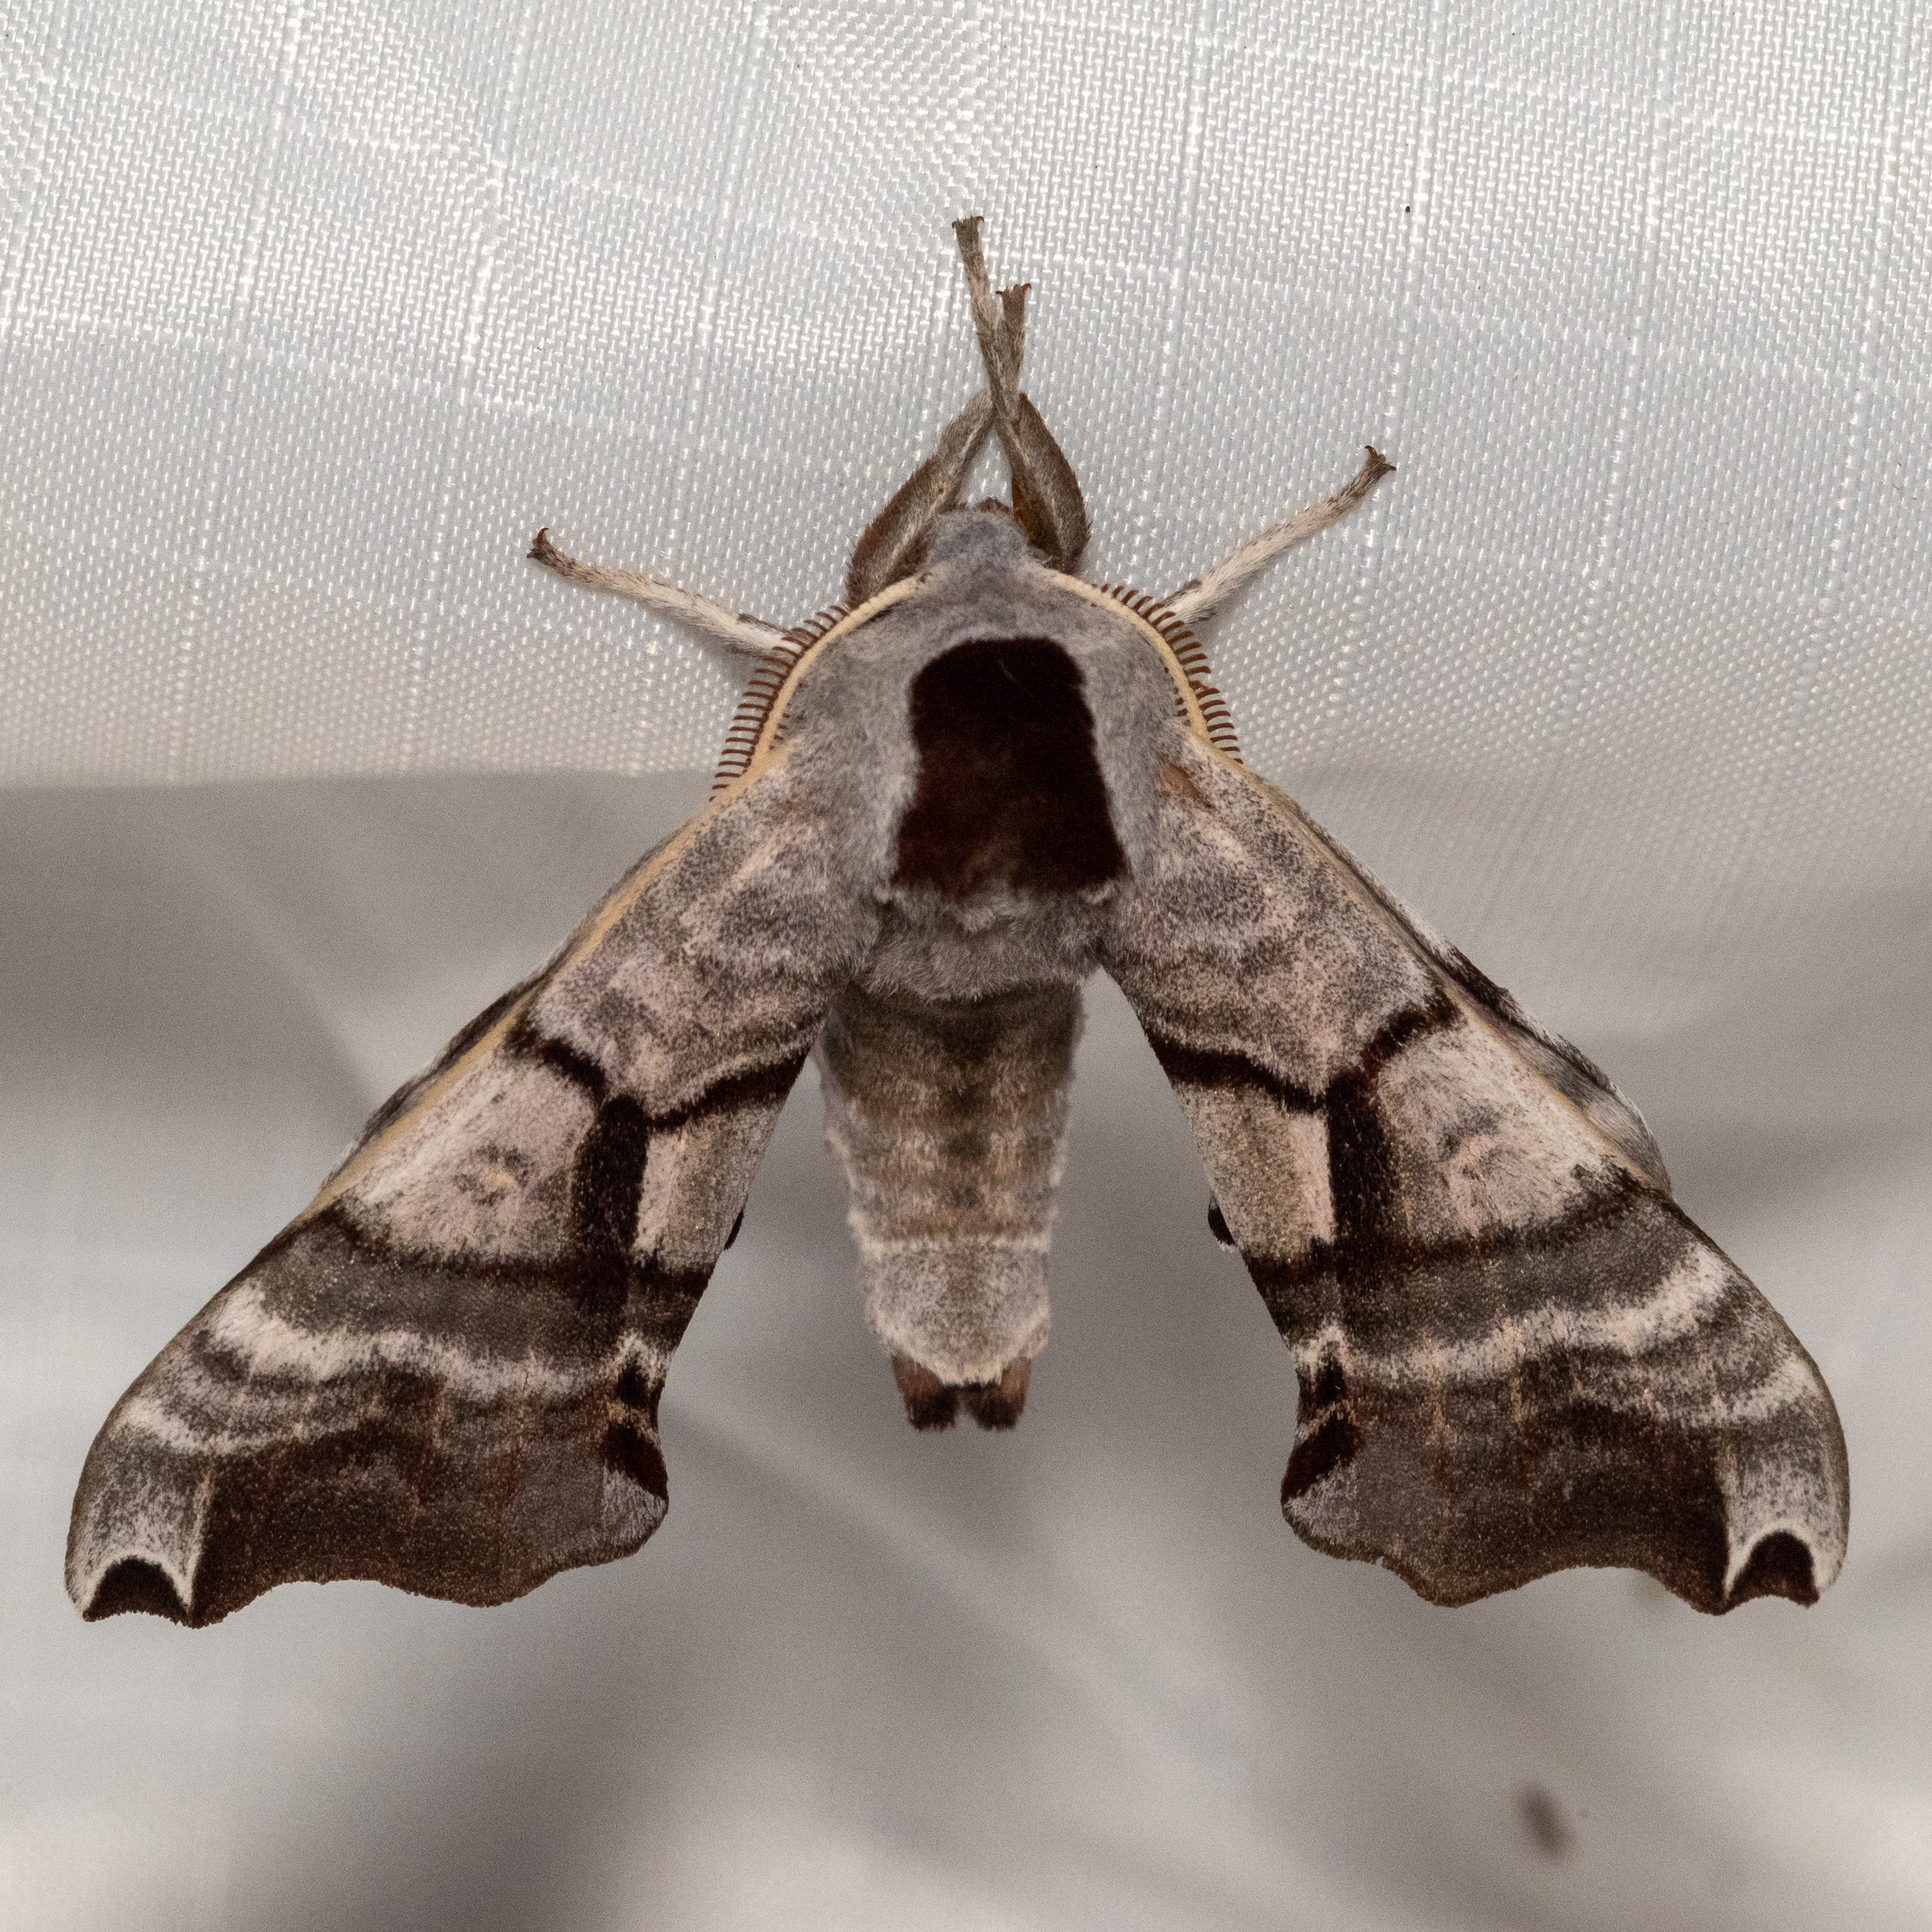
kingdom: Animalia
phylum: Arthropoda
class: Insecta
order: Lepidoptera
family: Sphingidae
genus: Smerinthus
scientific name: Smerinthus jamaicensis
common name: Twin spotted sphinx
